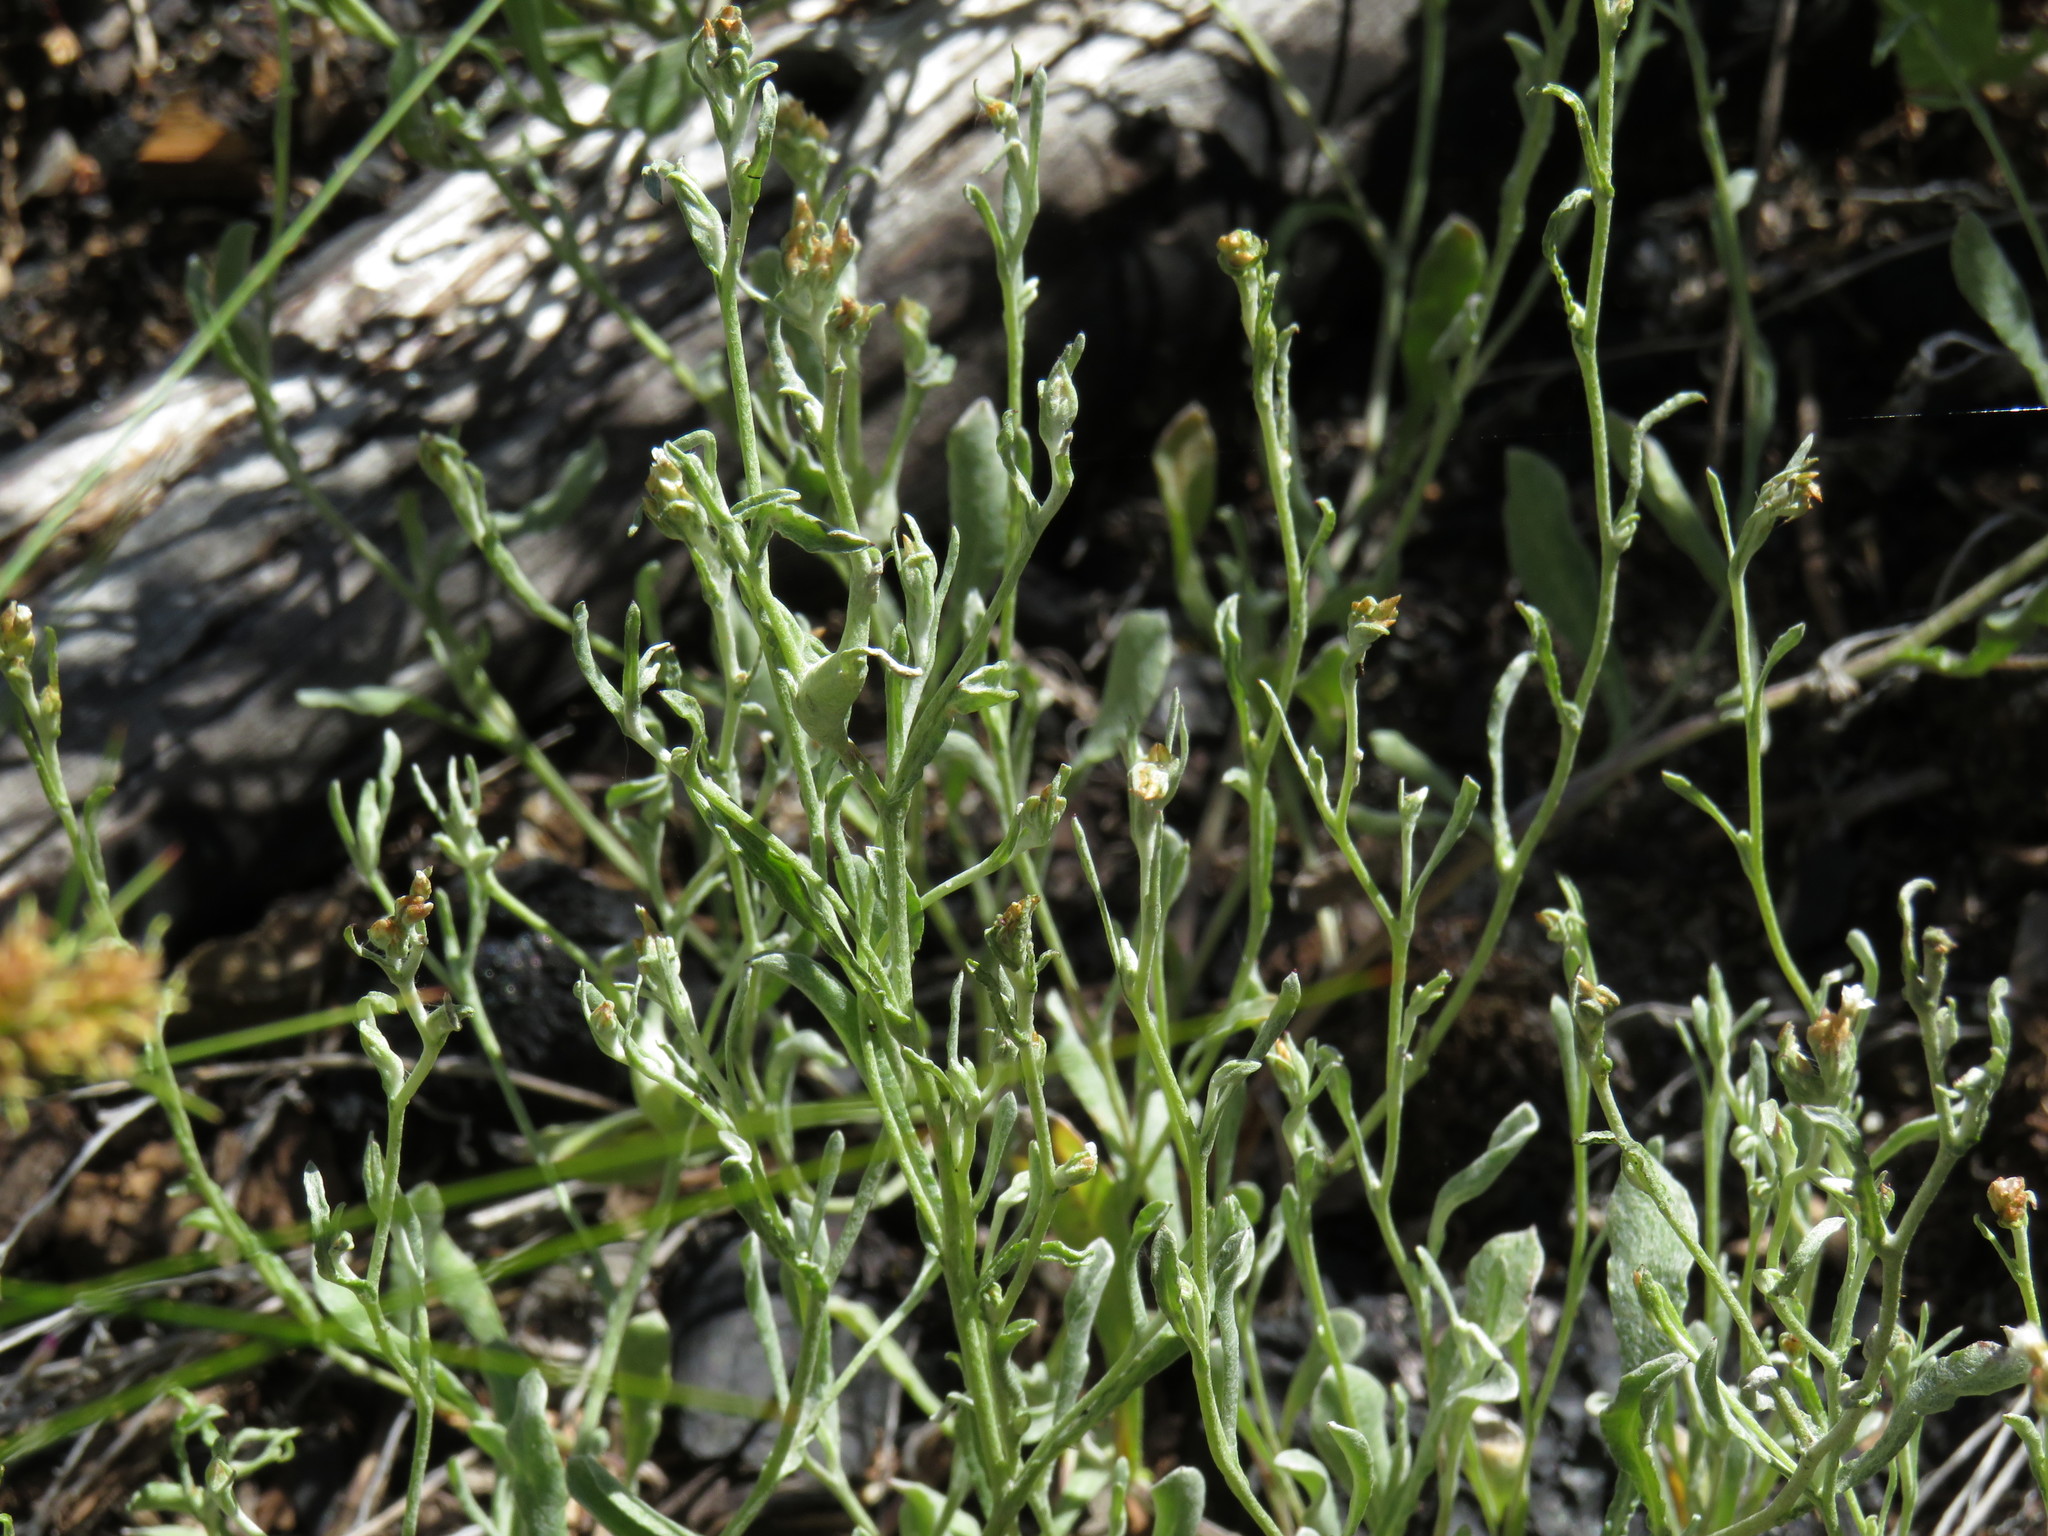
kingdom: Plantae
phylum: Tracheophyta
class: Magnoliopsida
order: Asterales
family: Asteraceae
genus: Helichrysum
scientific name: Helichrysum indicum
